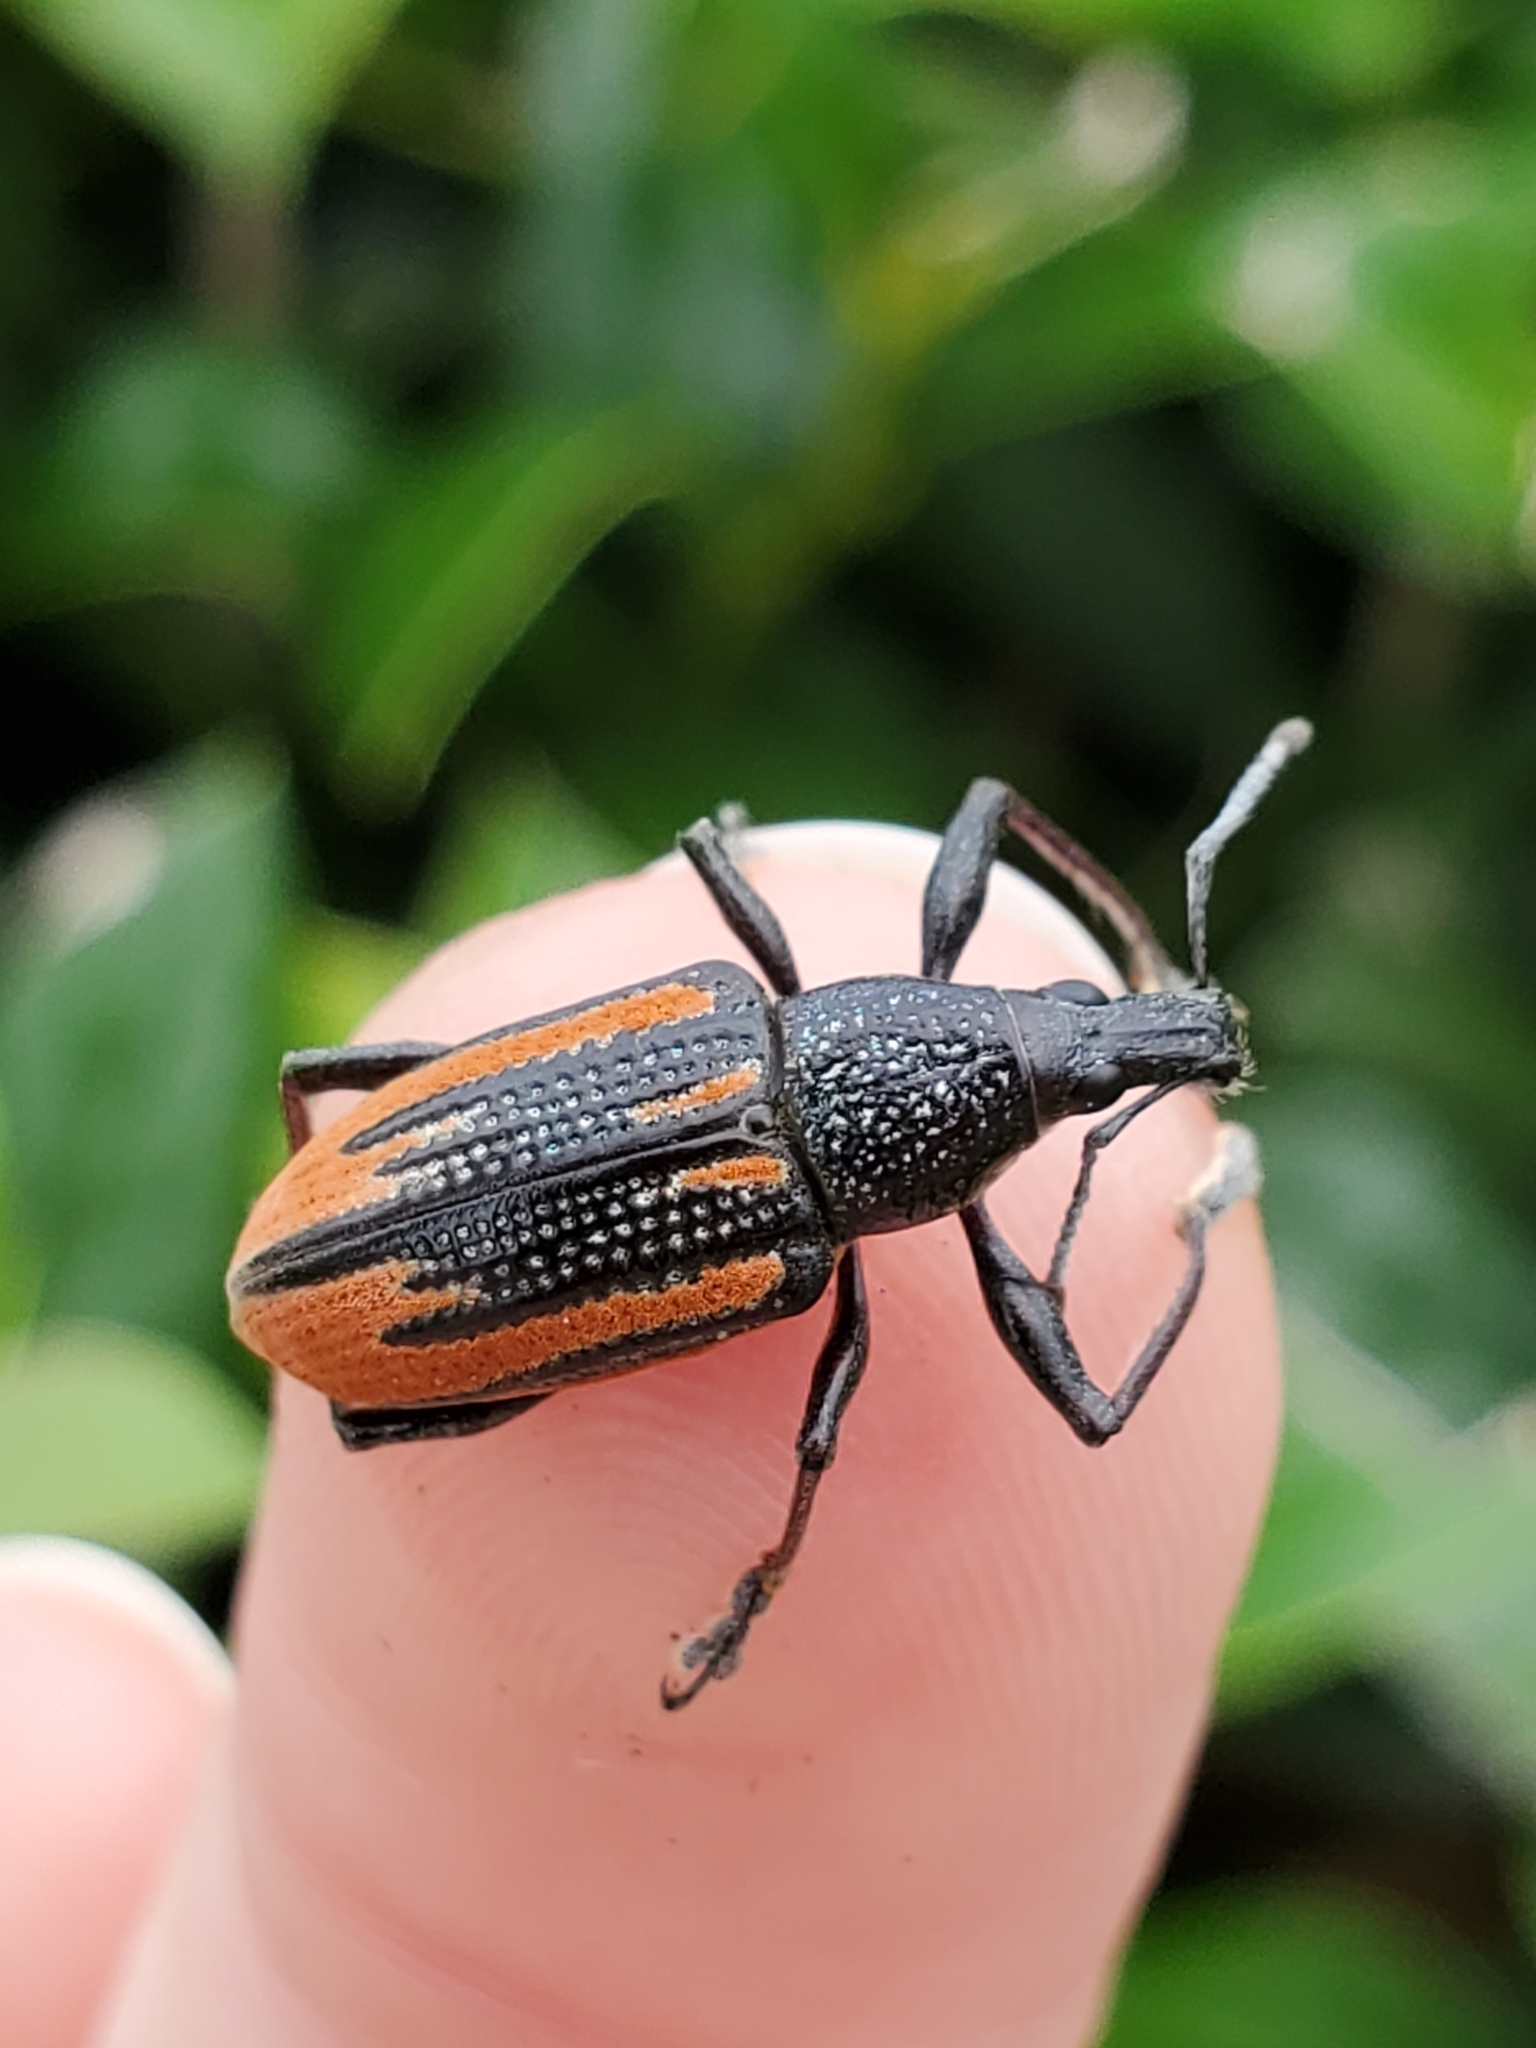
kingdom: Animalia
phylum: Arthropoda
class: Insecta
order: Coleoptera
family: Curculionidae
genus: Diaprepes
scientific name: Diaprepes abbreviatus
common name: Root weevil
